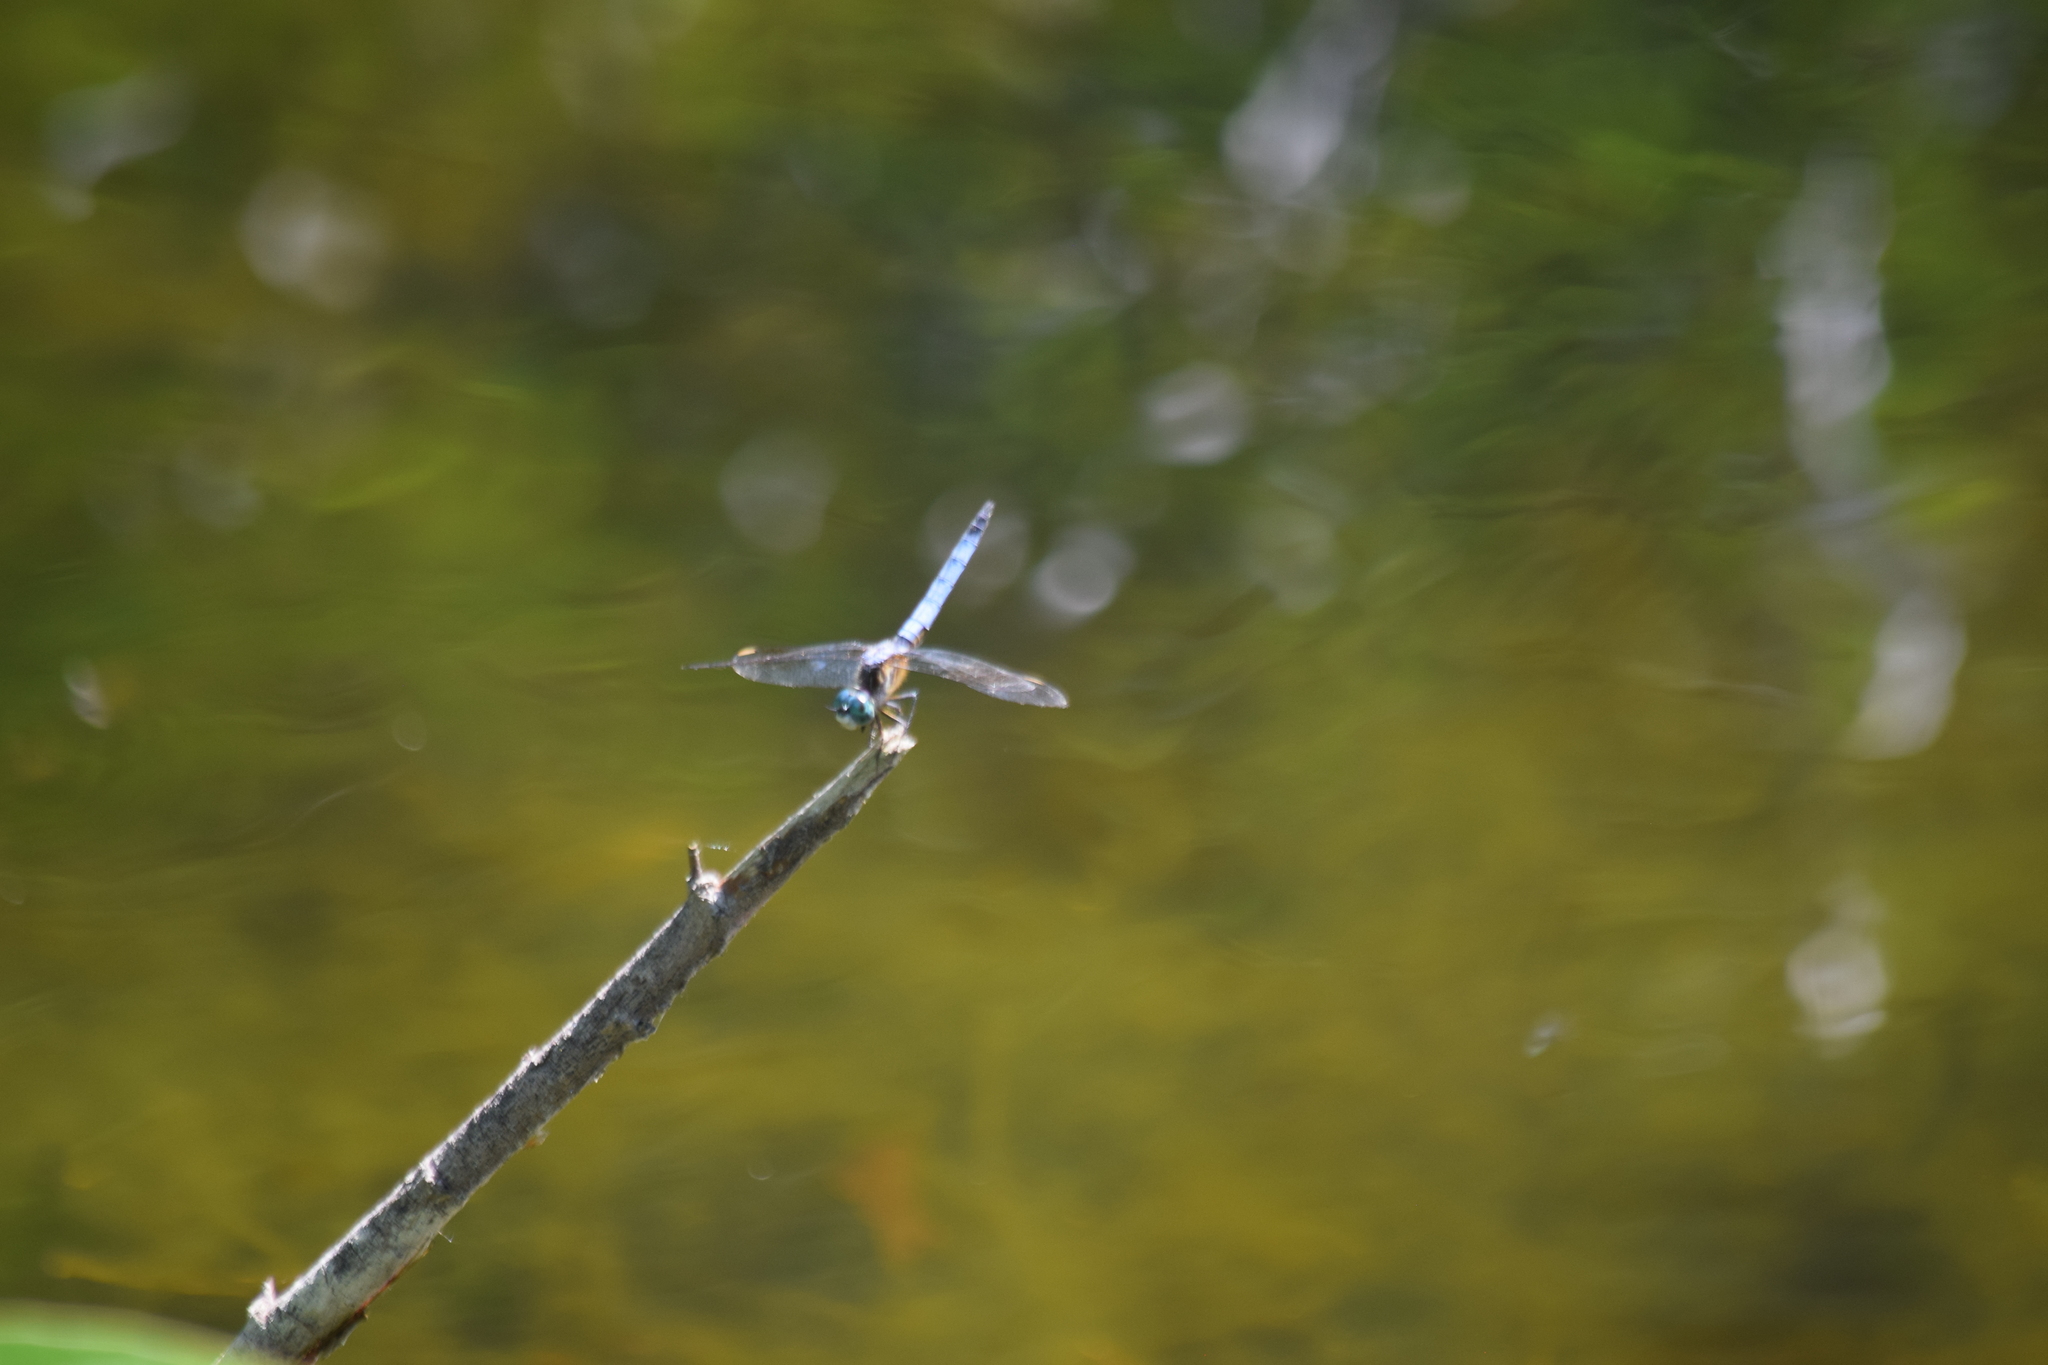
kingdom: Animalia
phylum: Arthropoda
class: Insecta
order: Odonata
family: Libellulidae
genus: Pachydiplax
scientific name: Pachydiplax longipennis
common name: Blue dasher
